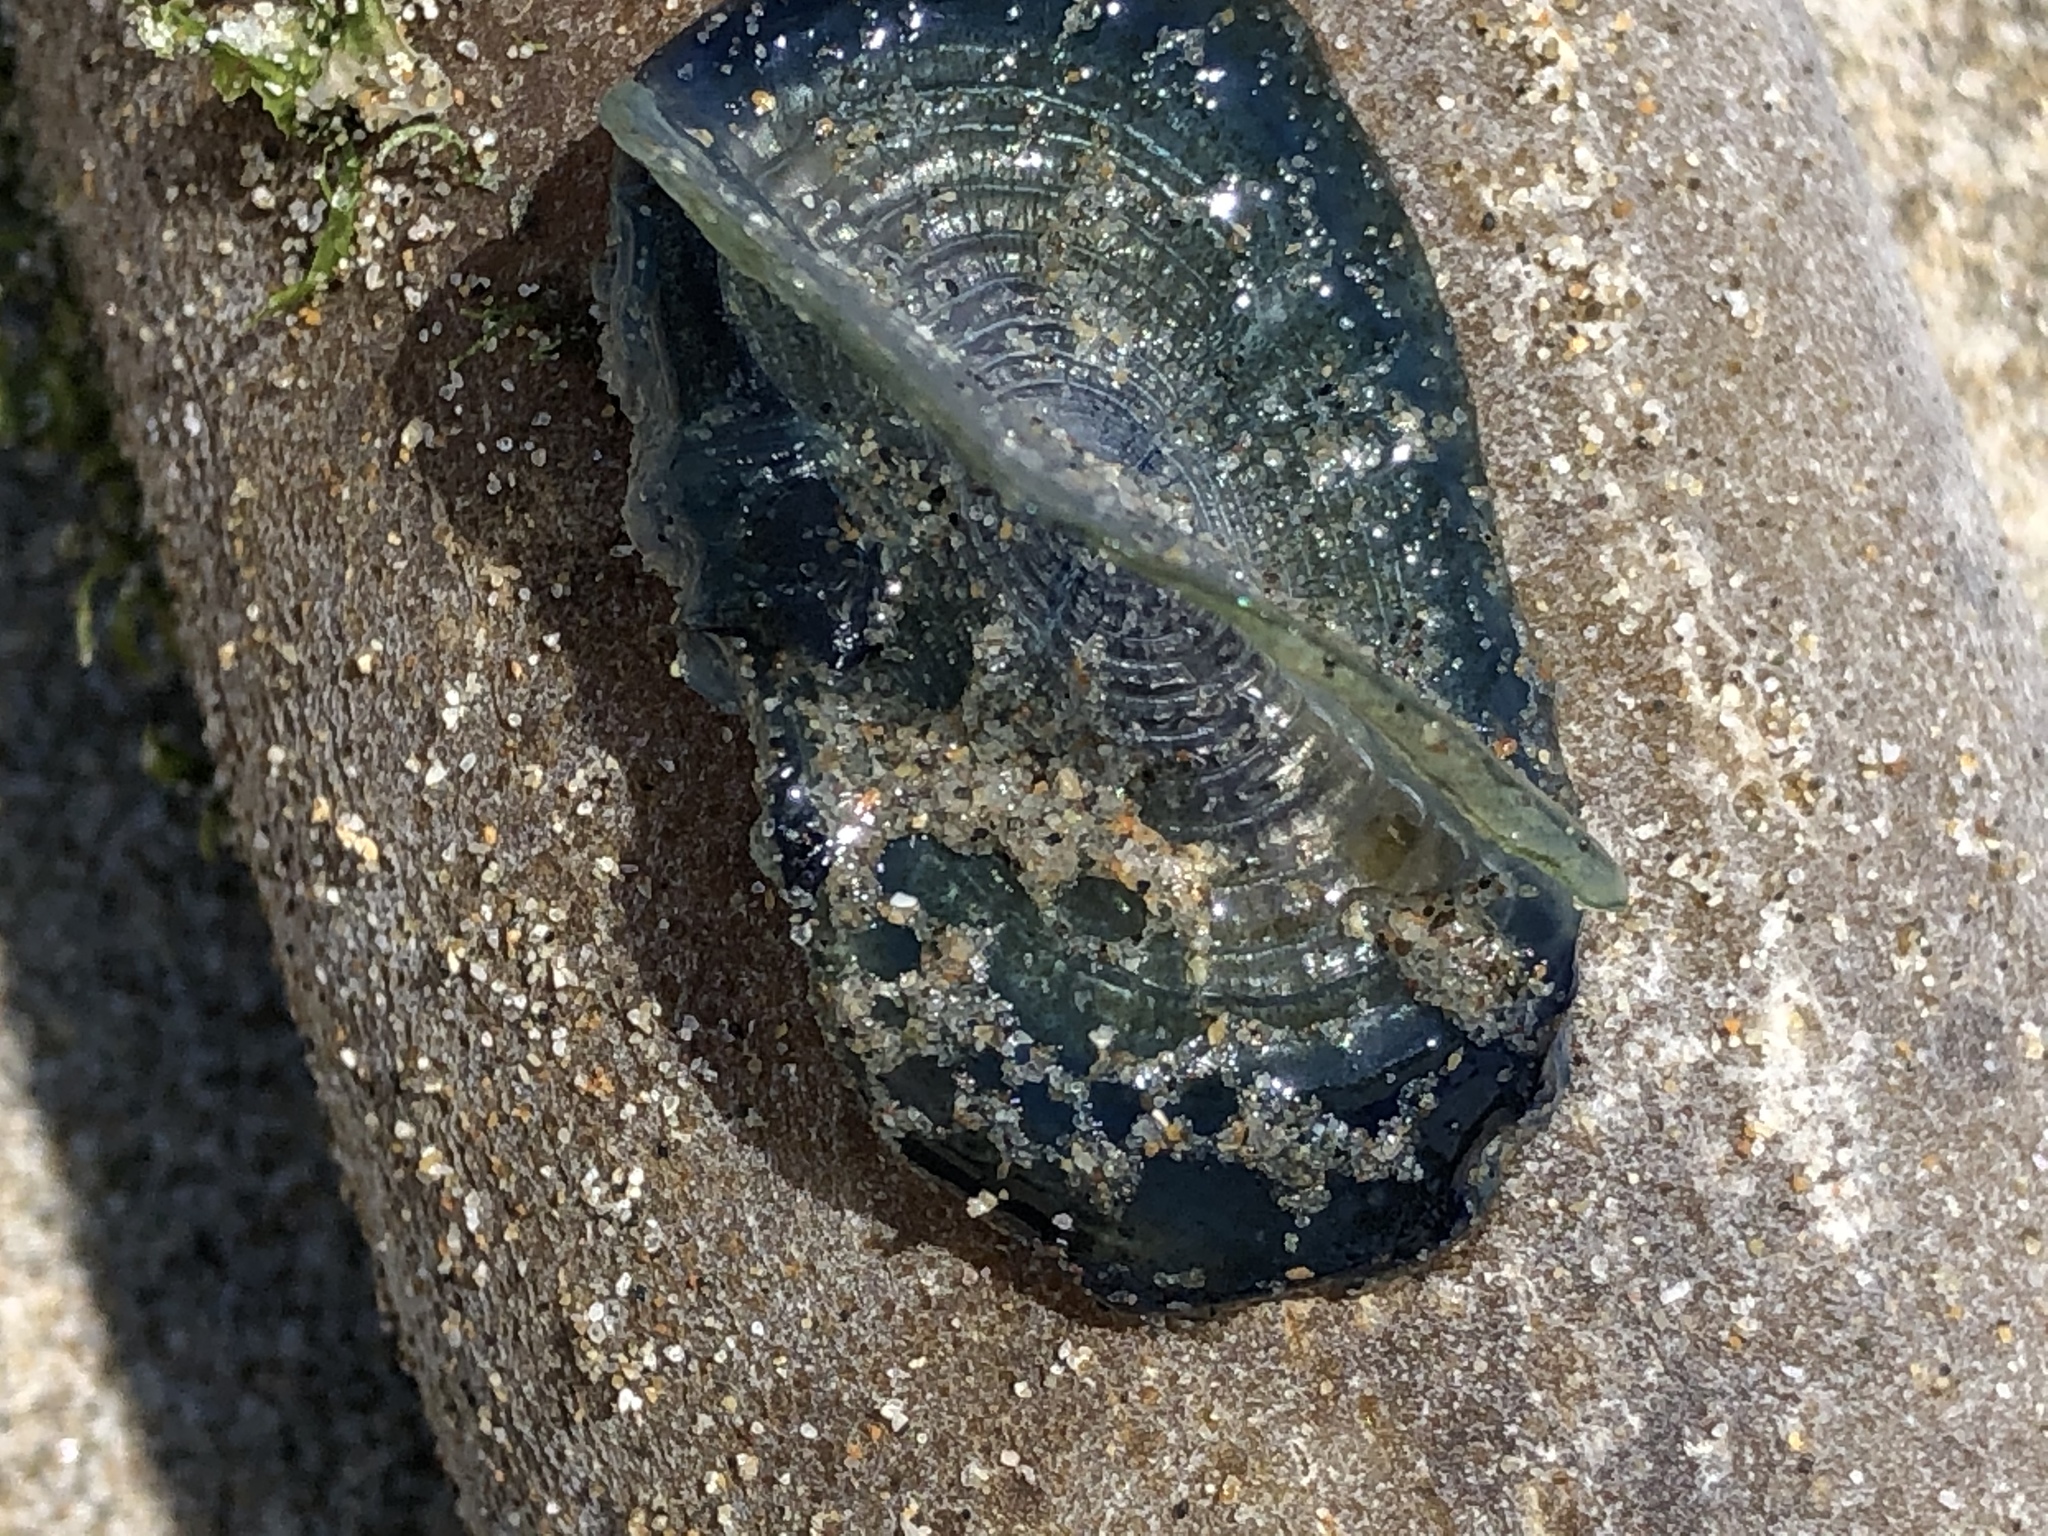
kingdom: Animalia
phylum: Cnidaria
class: Hydrozoa
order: Anthoathecata
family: Porpitidae
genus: Velella
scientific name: Velella velella
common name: By-the-wind-sailor
